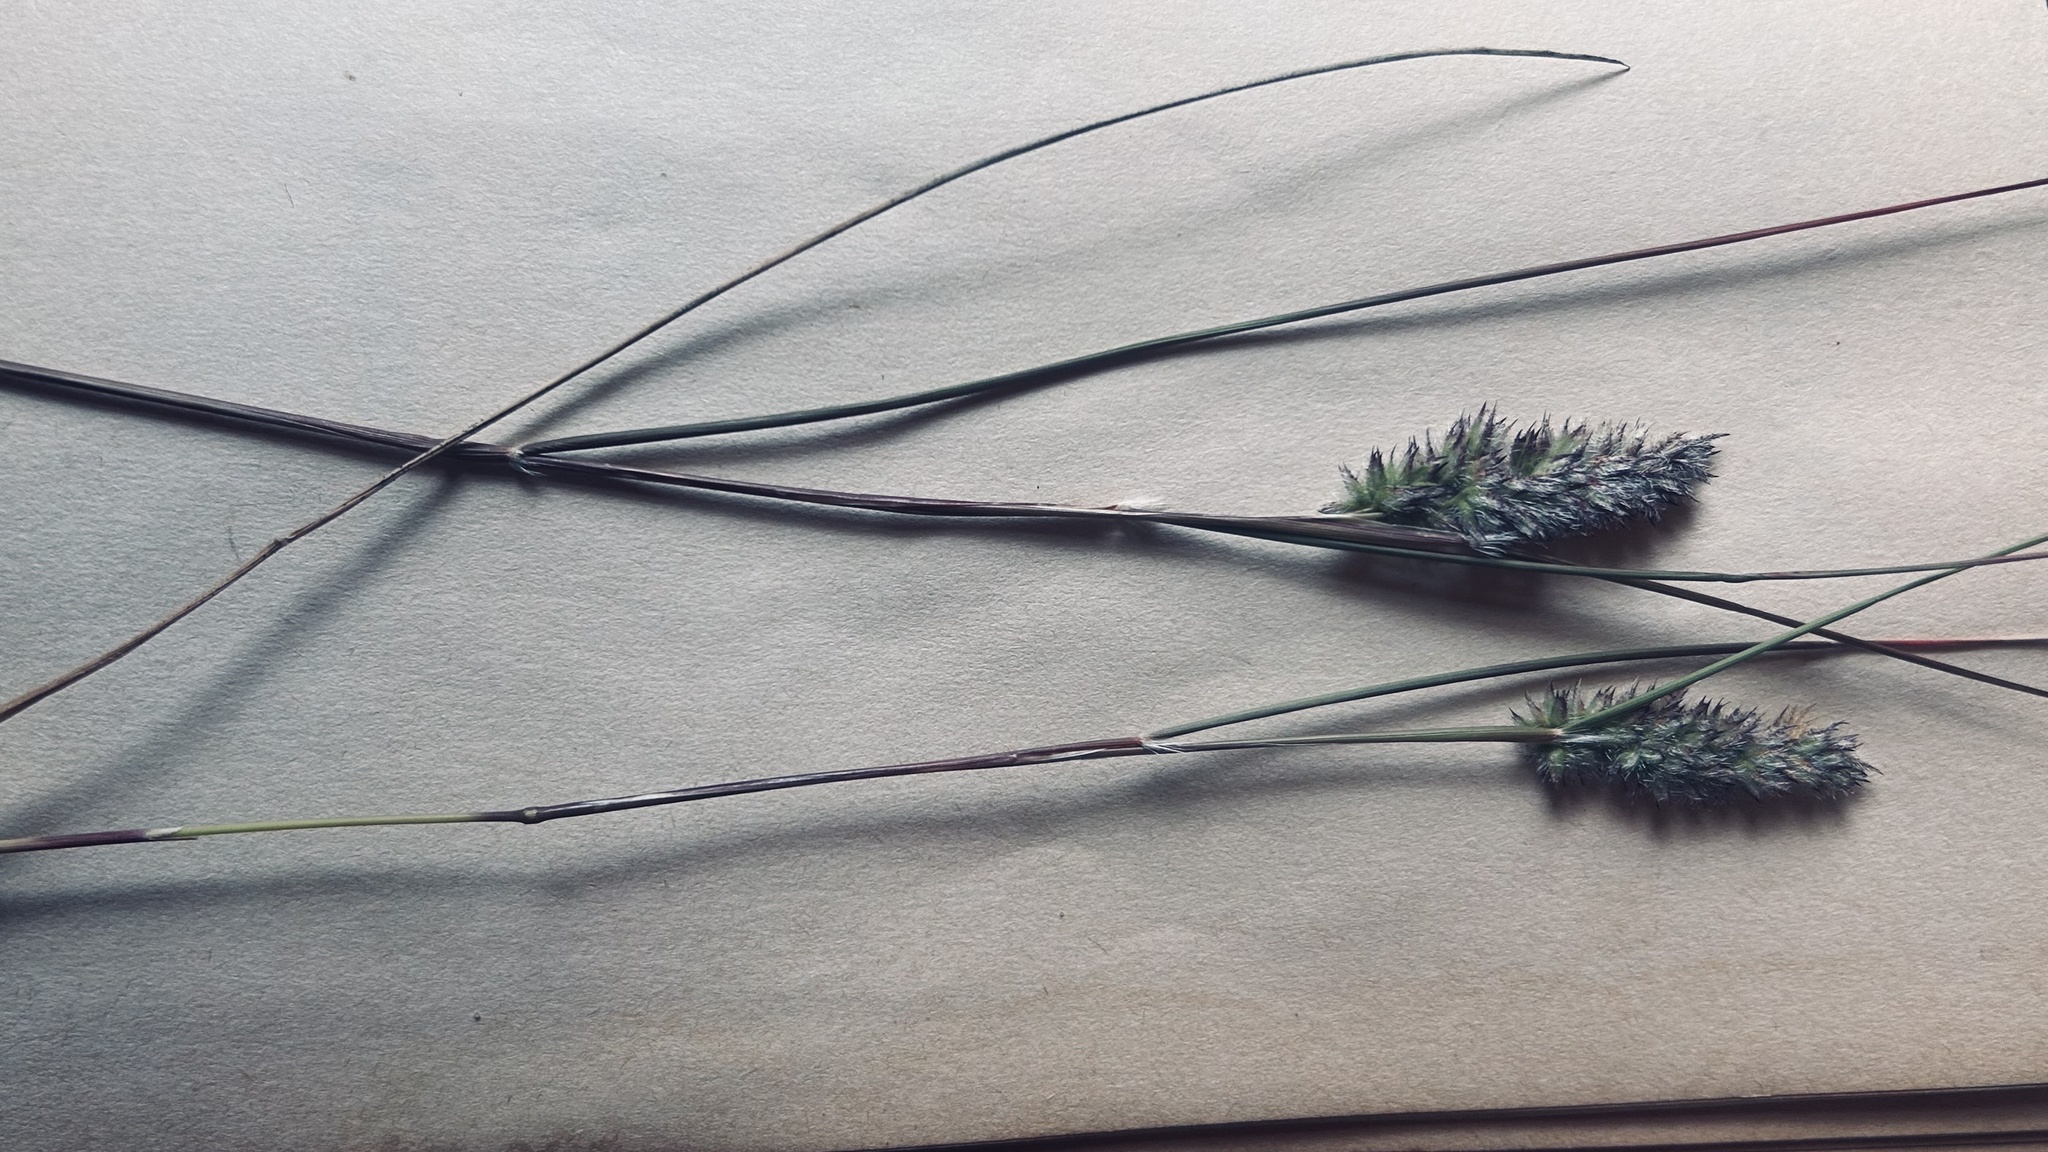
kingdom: Plantae
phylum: Tracheophyta
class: Magnoliopsida
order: Fabales
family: Fabaceae
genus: Trifolium
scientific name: Trifolium angustifolium
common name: Narrow clover
